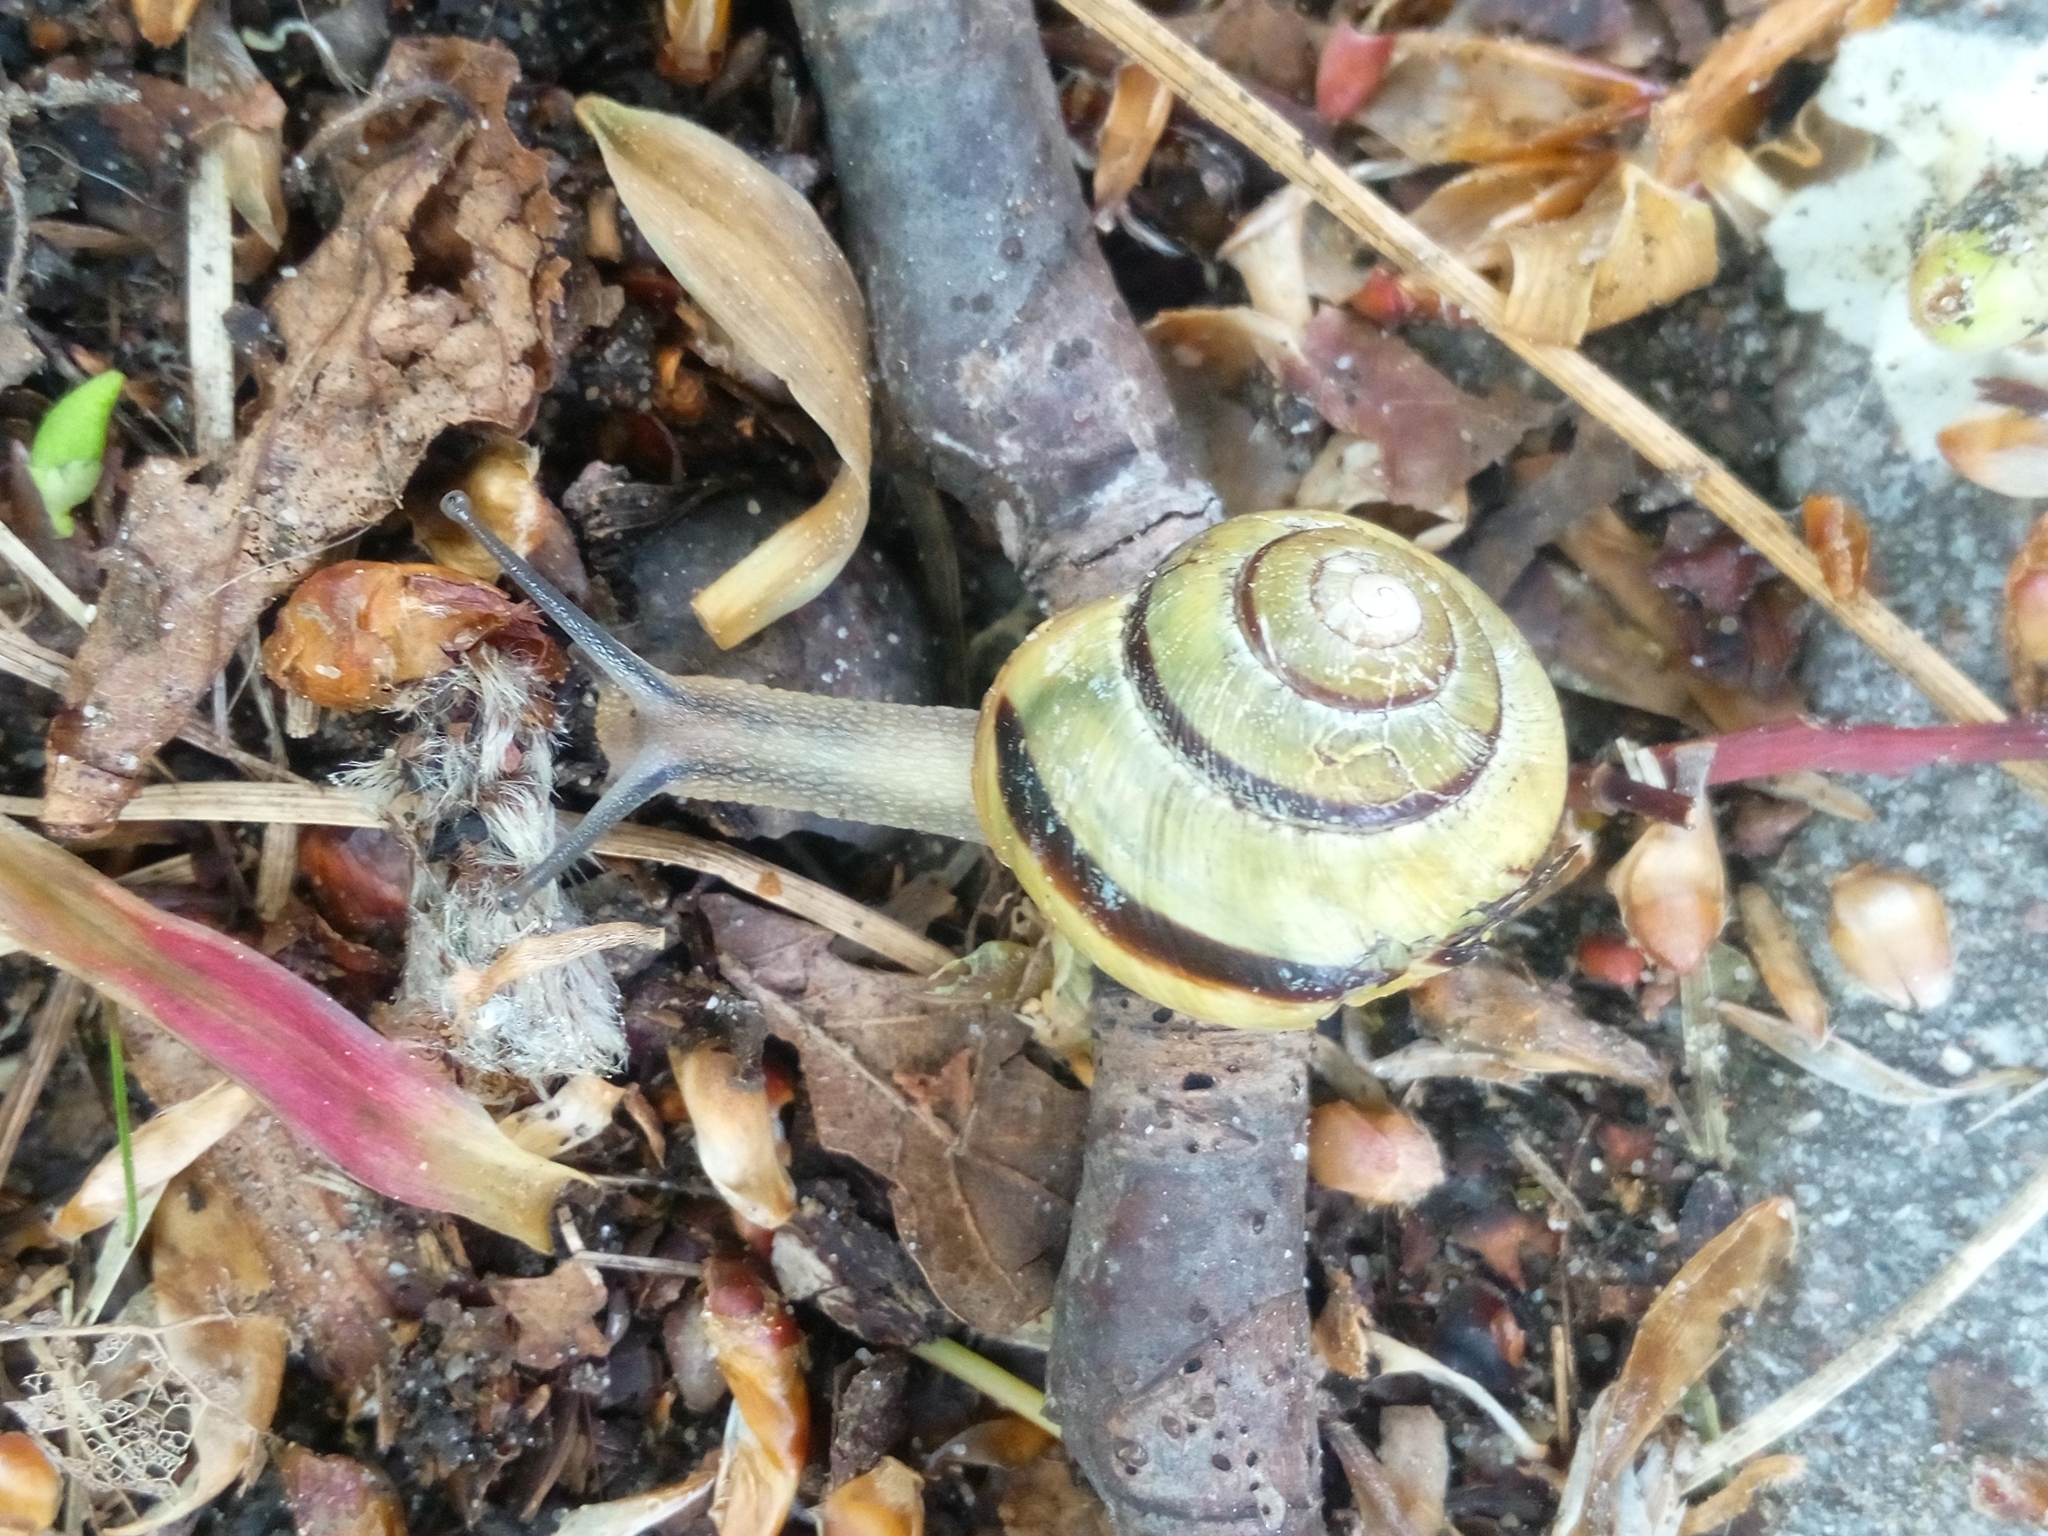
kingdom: Animalia
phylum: Mollusca
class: Gastropoda
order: Stylommatophora
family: Helicidae
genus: Cepaea
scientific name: Cepaea nemoralis
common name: Grovesnail
